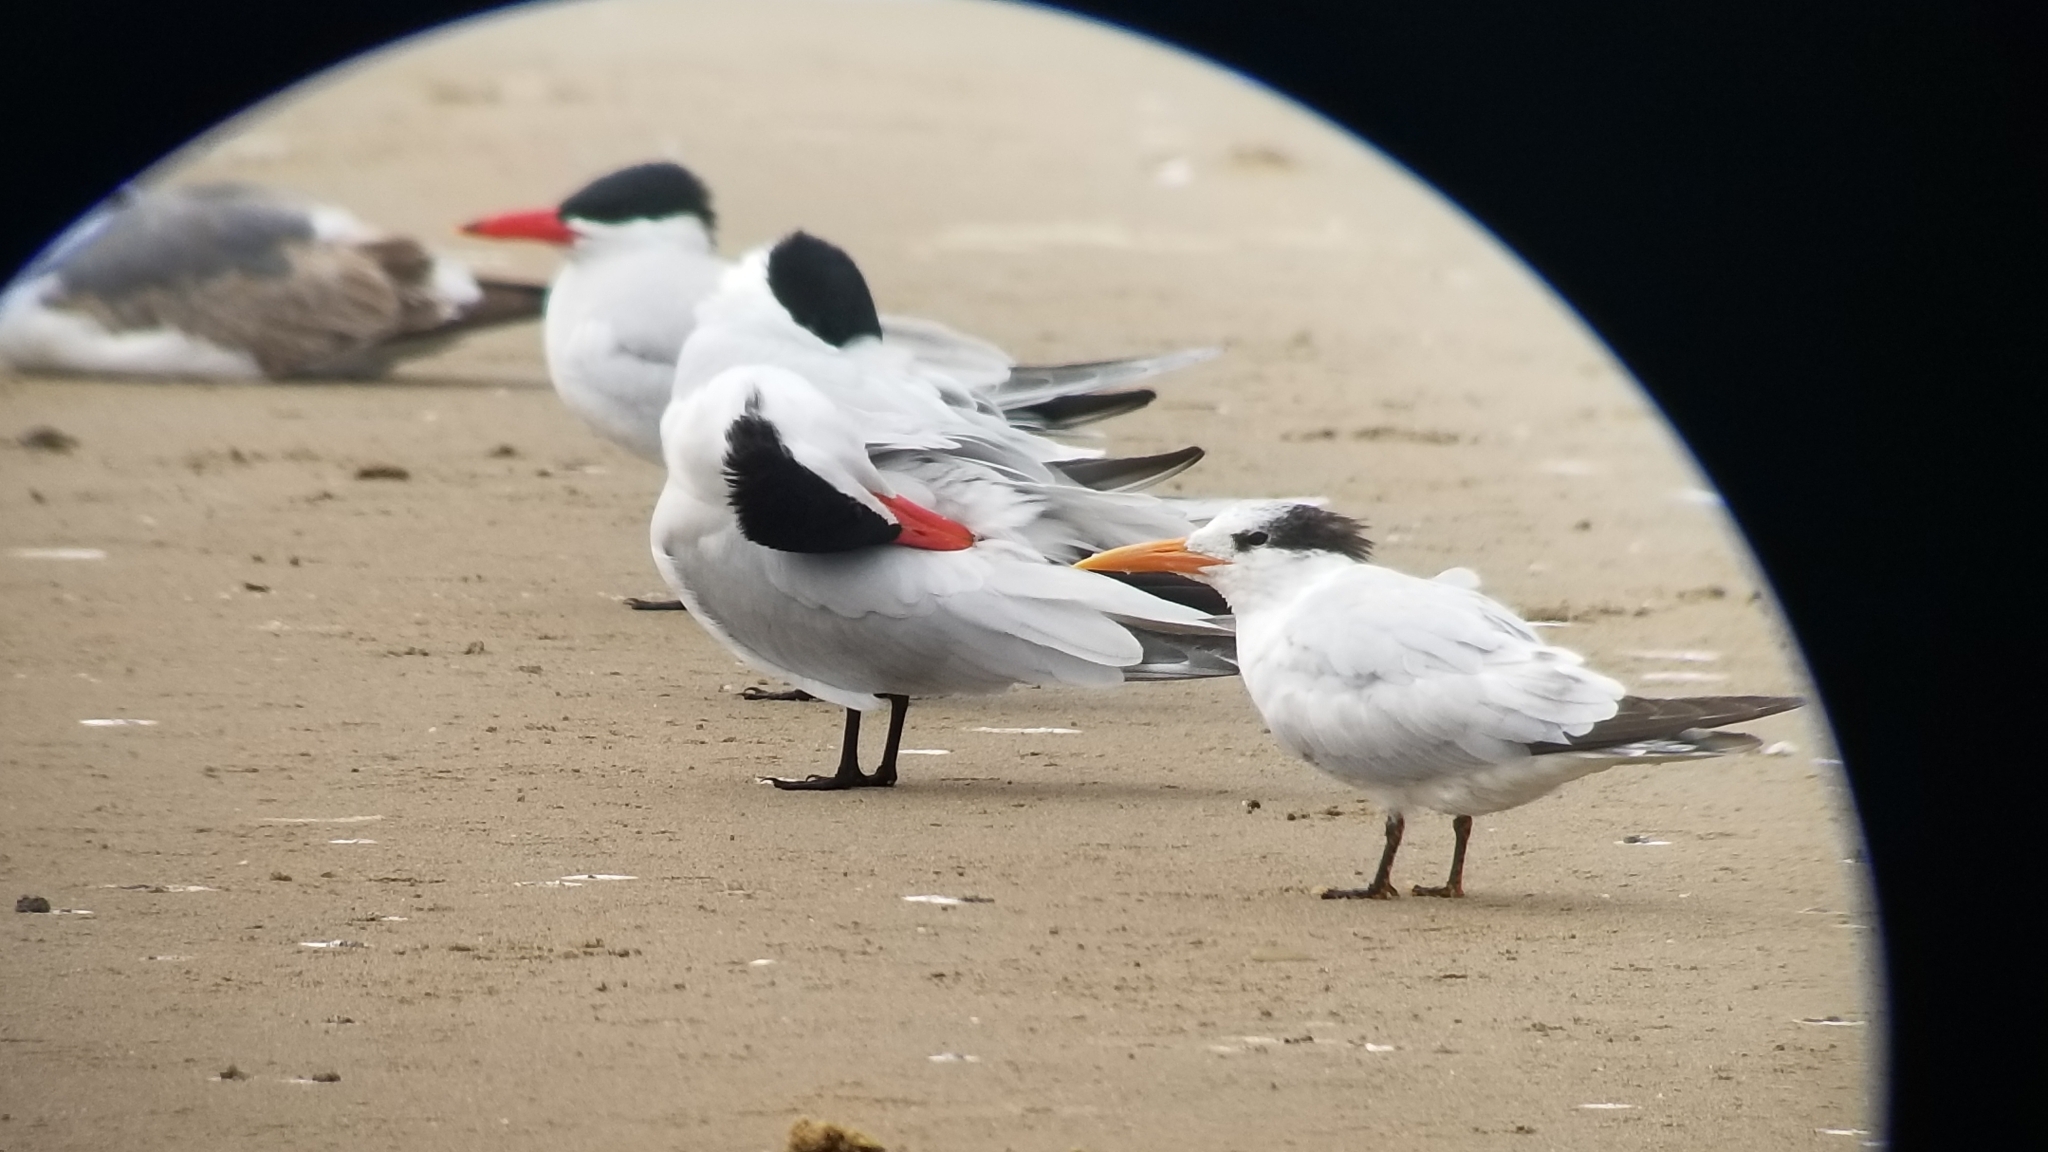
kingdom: Animalia
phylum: Chordata
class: Aves
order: Charadriiformes
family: Laridae
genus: Hydroprogne
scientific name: Hydroprogne caspia
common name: Caspian tern
